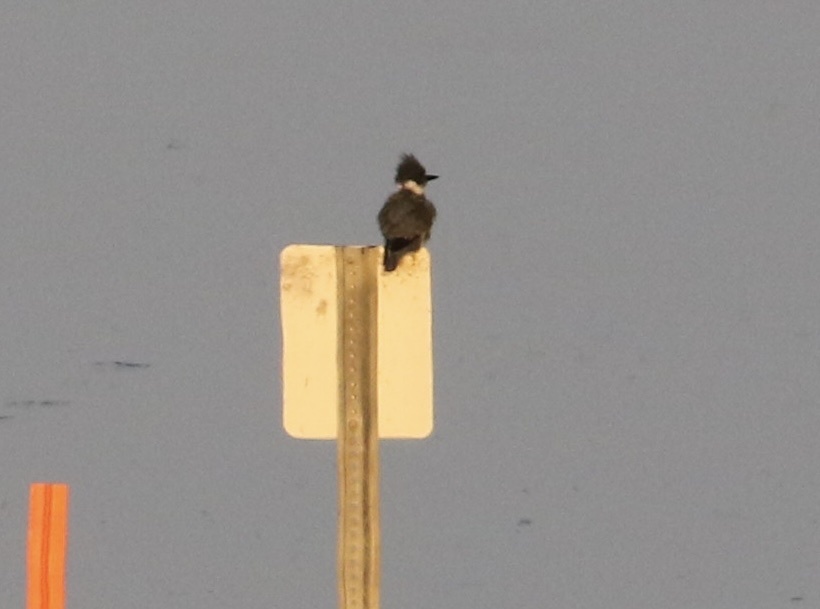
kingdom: Animalia
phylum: Chordata
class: Aves
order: Coraciiformes
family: Alcedinidae
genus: Megaceryle
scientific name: Megaceryle alcyon
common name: Belted kingfisher
